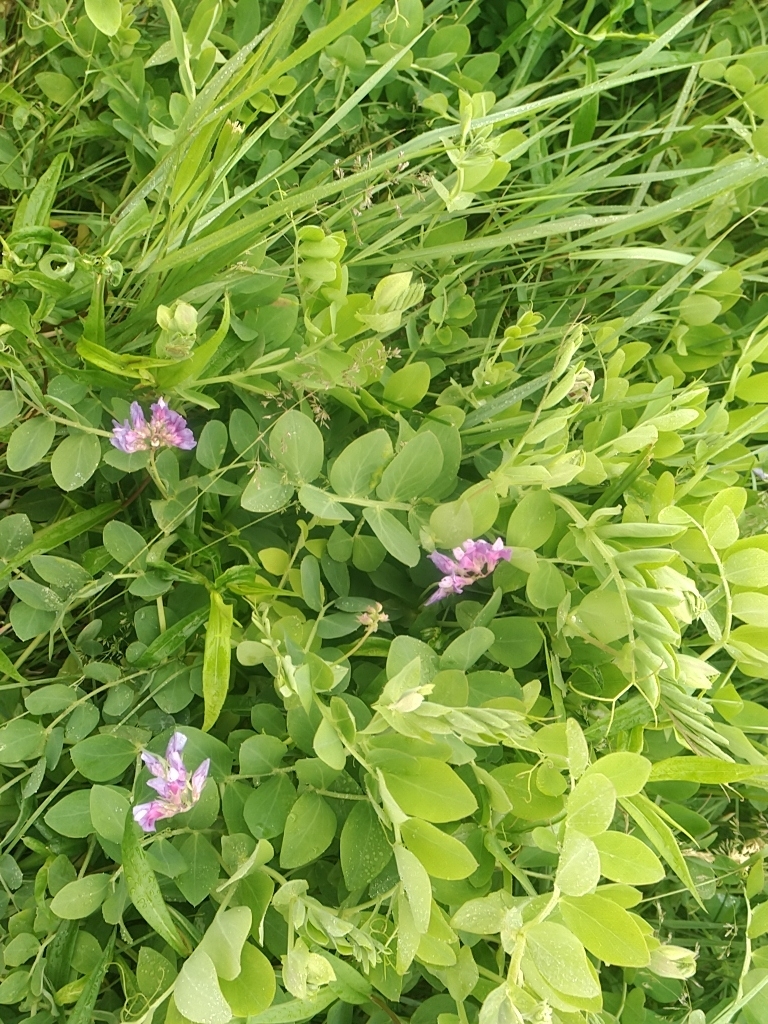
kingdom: Plantae
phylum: Tracheophyta
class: Magnoliopsida
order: Fabales
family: Fabaceae
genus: Lathyrus
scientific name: Lathyrus japonicus
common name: Sea pea
